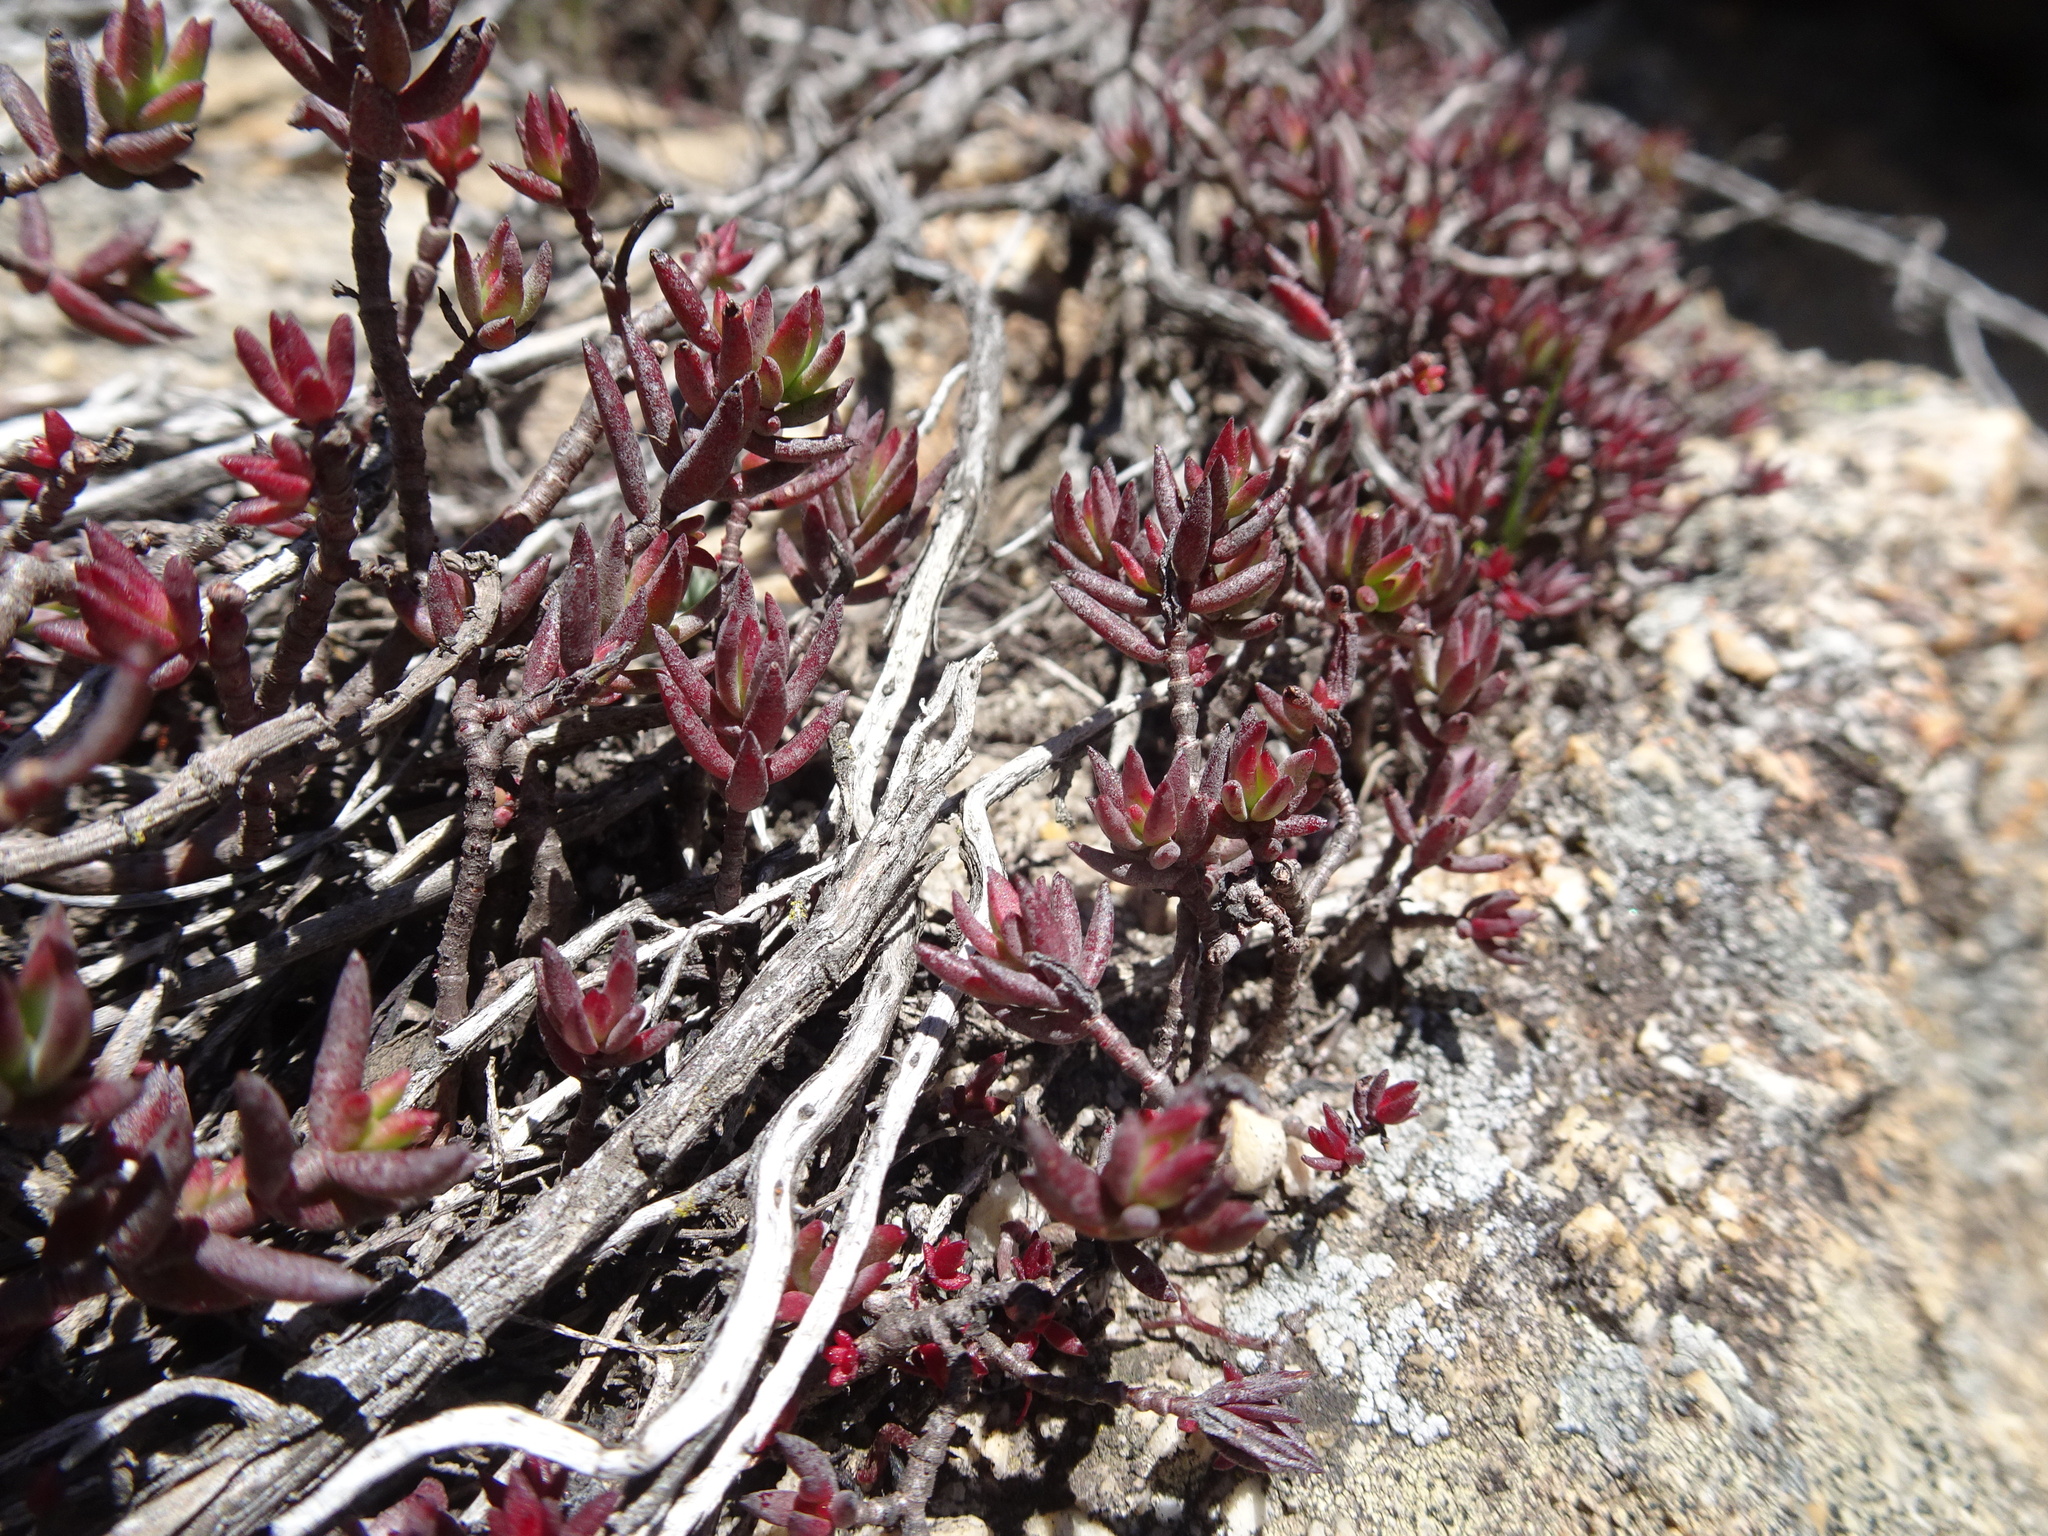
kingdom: Plantae
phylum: Tracheophyta
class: Magnoliopsida
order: Saxifragales
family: Crassulaceae
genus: Crassula
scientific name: Crassula biplanata
